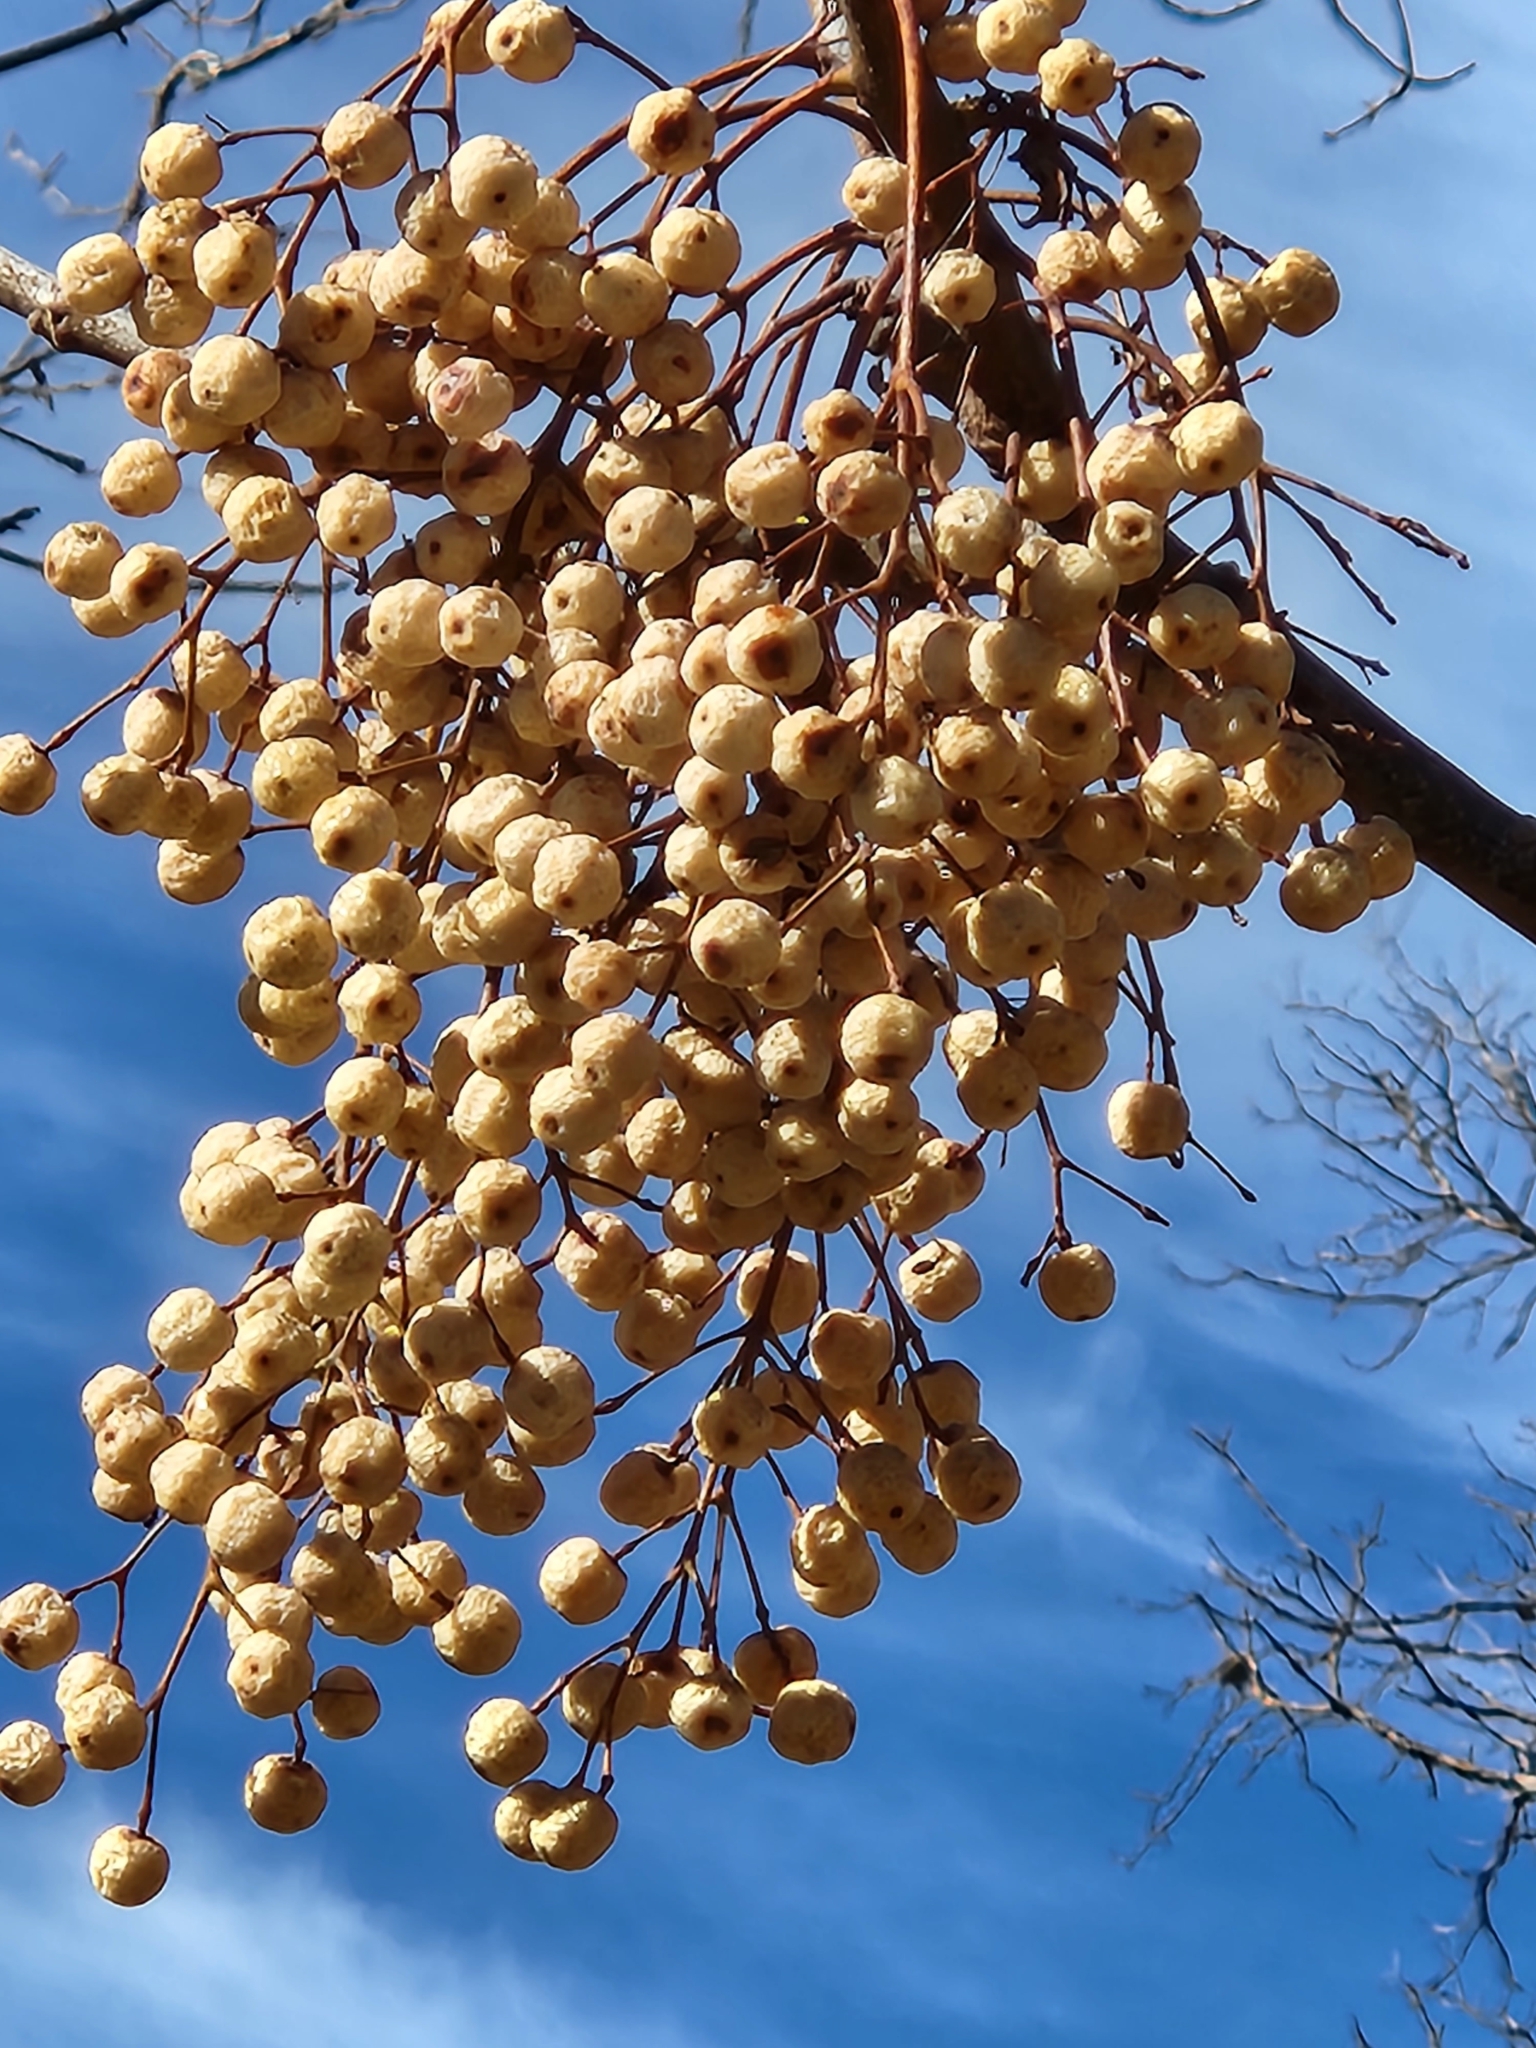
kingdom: Plantae
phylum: Tracheophyta
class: Magnoliopsida
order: Sapindales
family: Meliaceae
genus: Melia
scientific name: Melia azedarach
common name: Chinaberrytree
